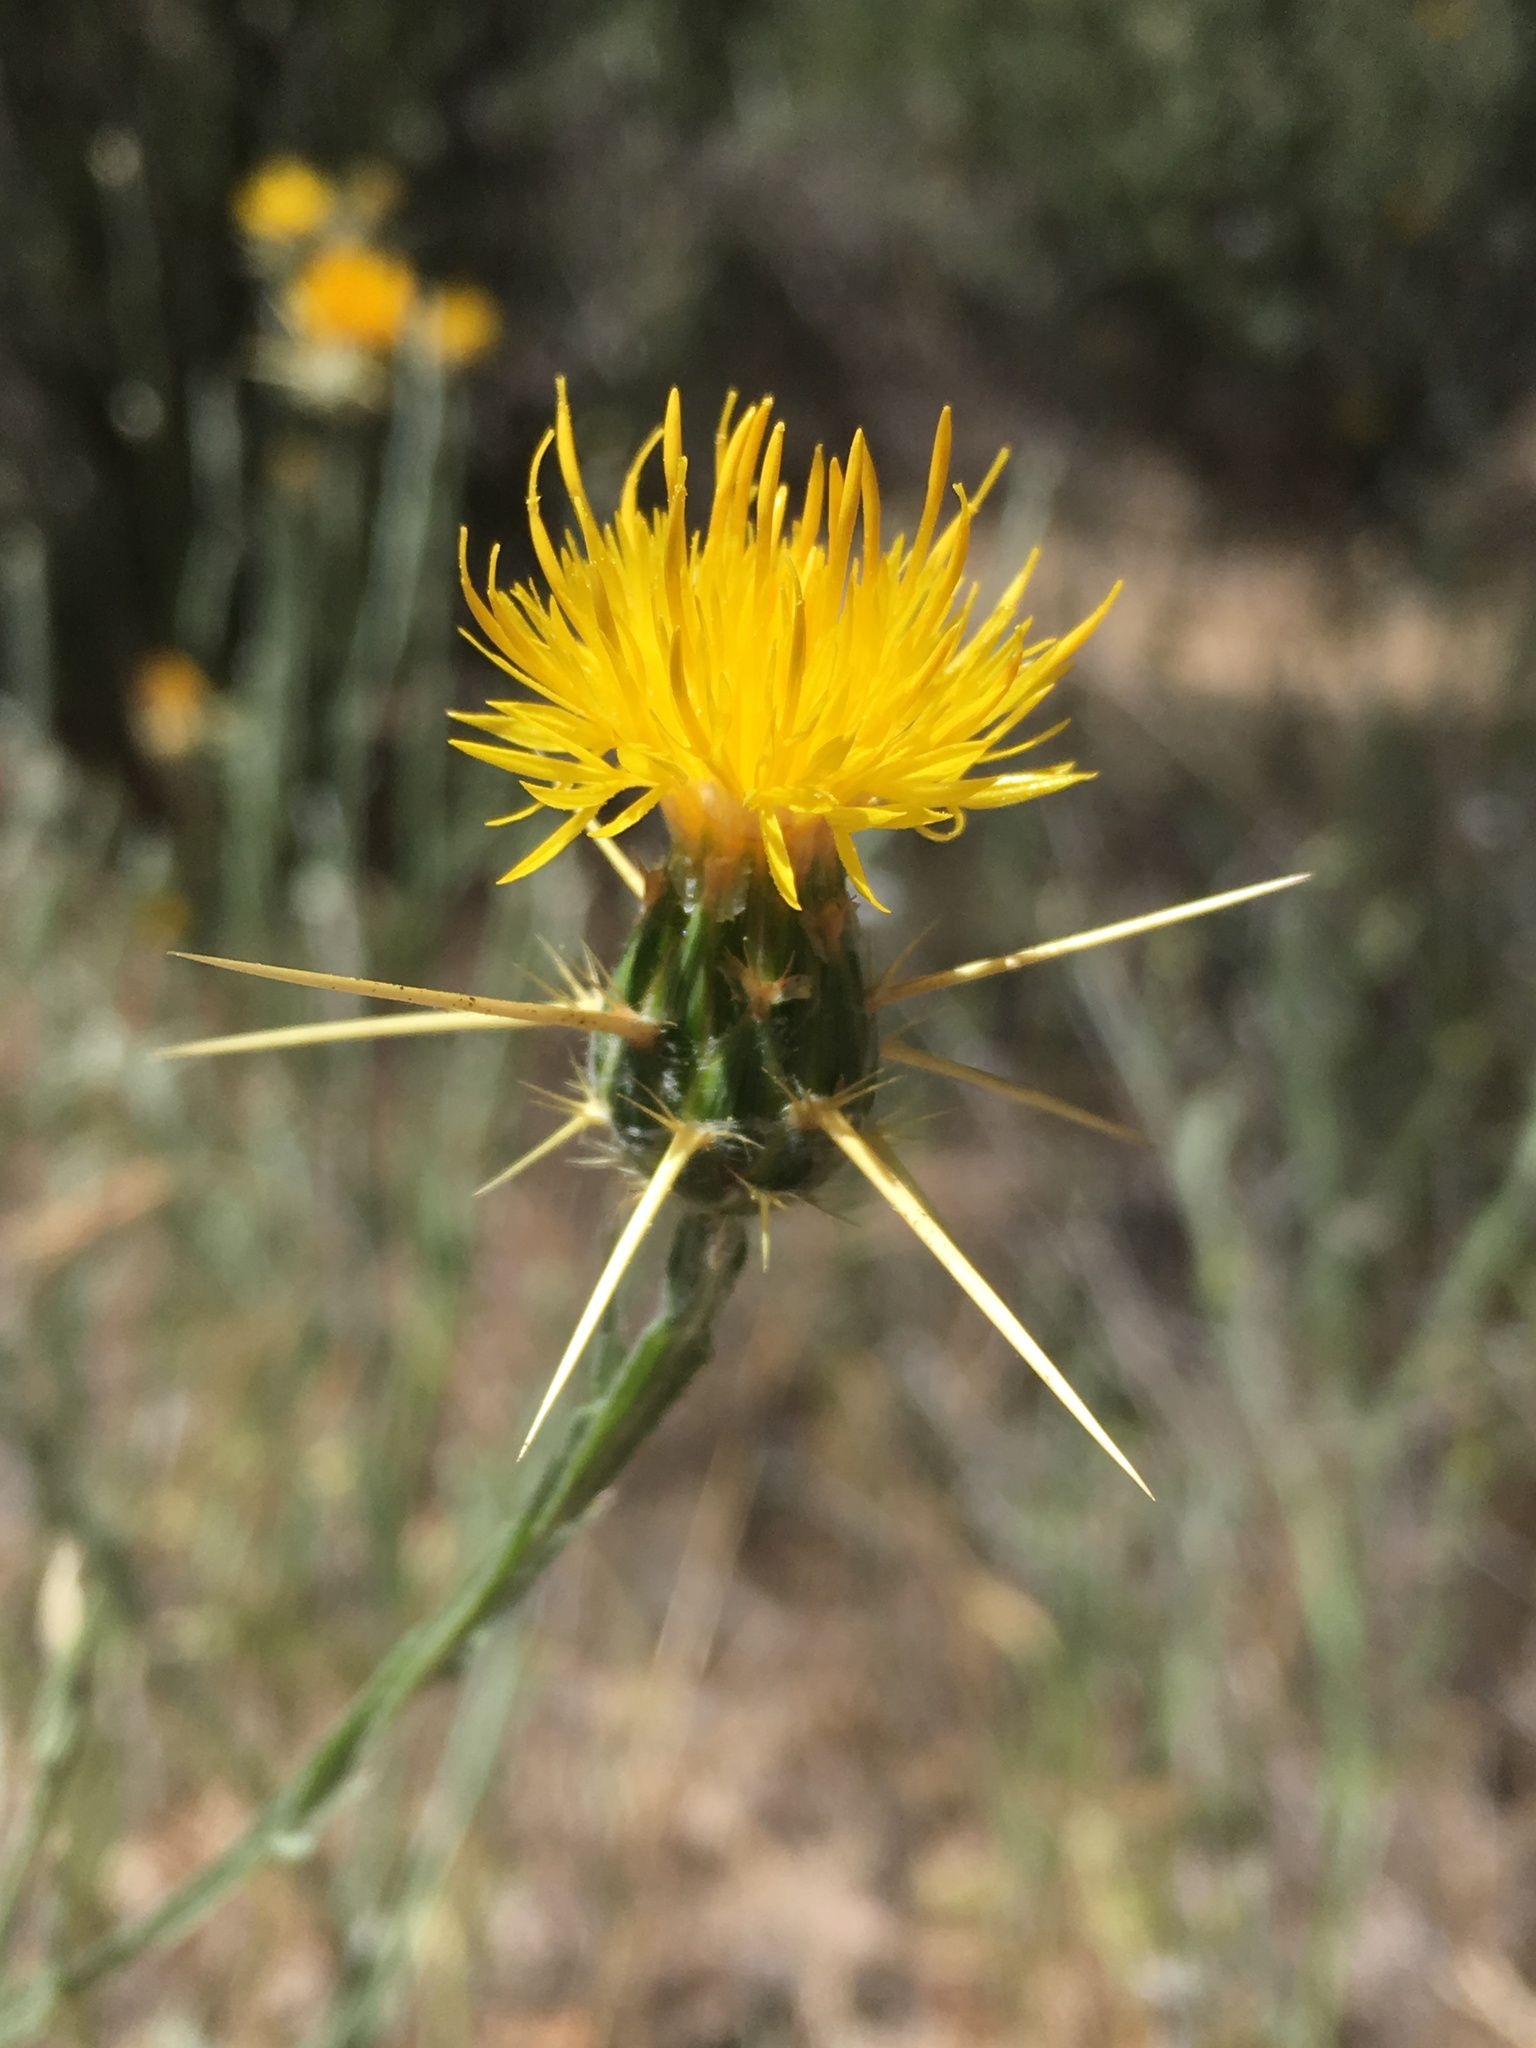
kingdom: Plantae
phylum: Tracheophyta
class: Magnoliopsida
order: Asterales
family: Asteraceae
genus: Centaurea
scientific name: Centaurea solstitialis
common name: Yellow star-thistle
